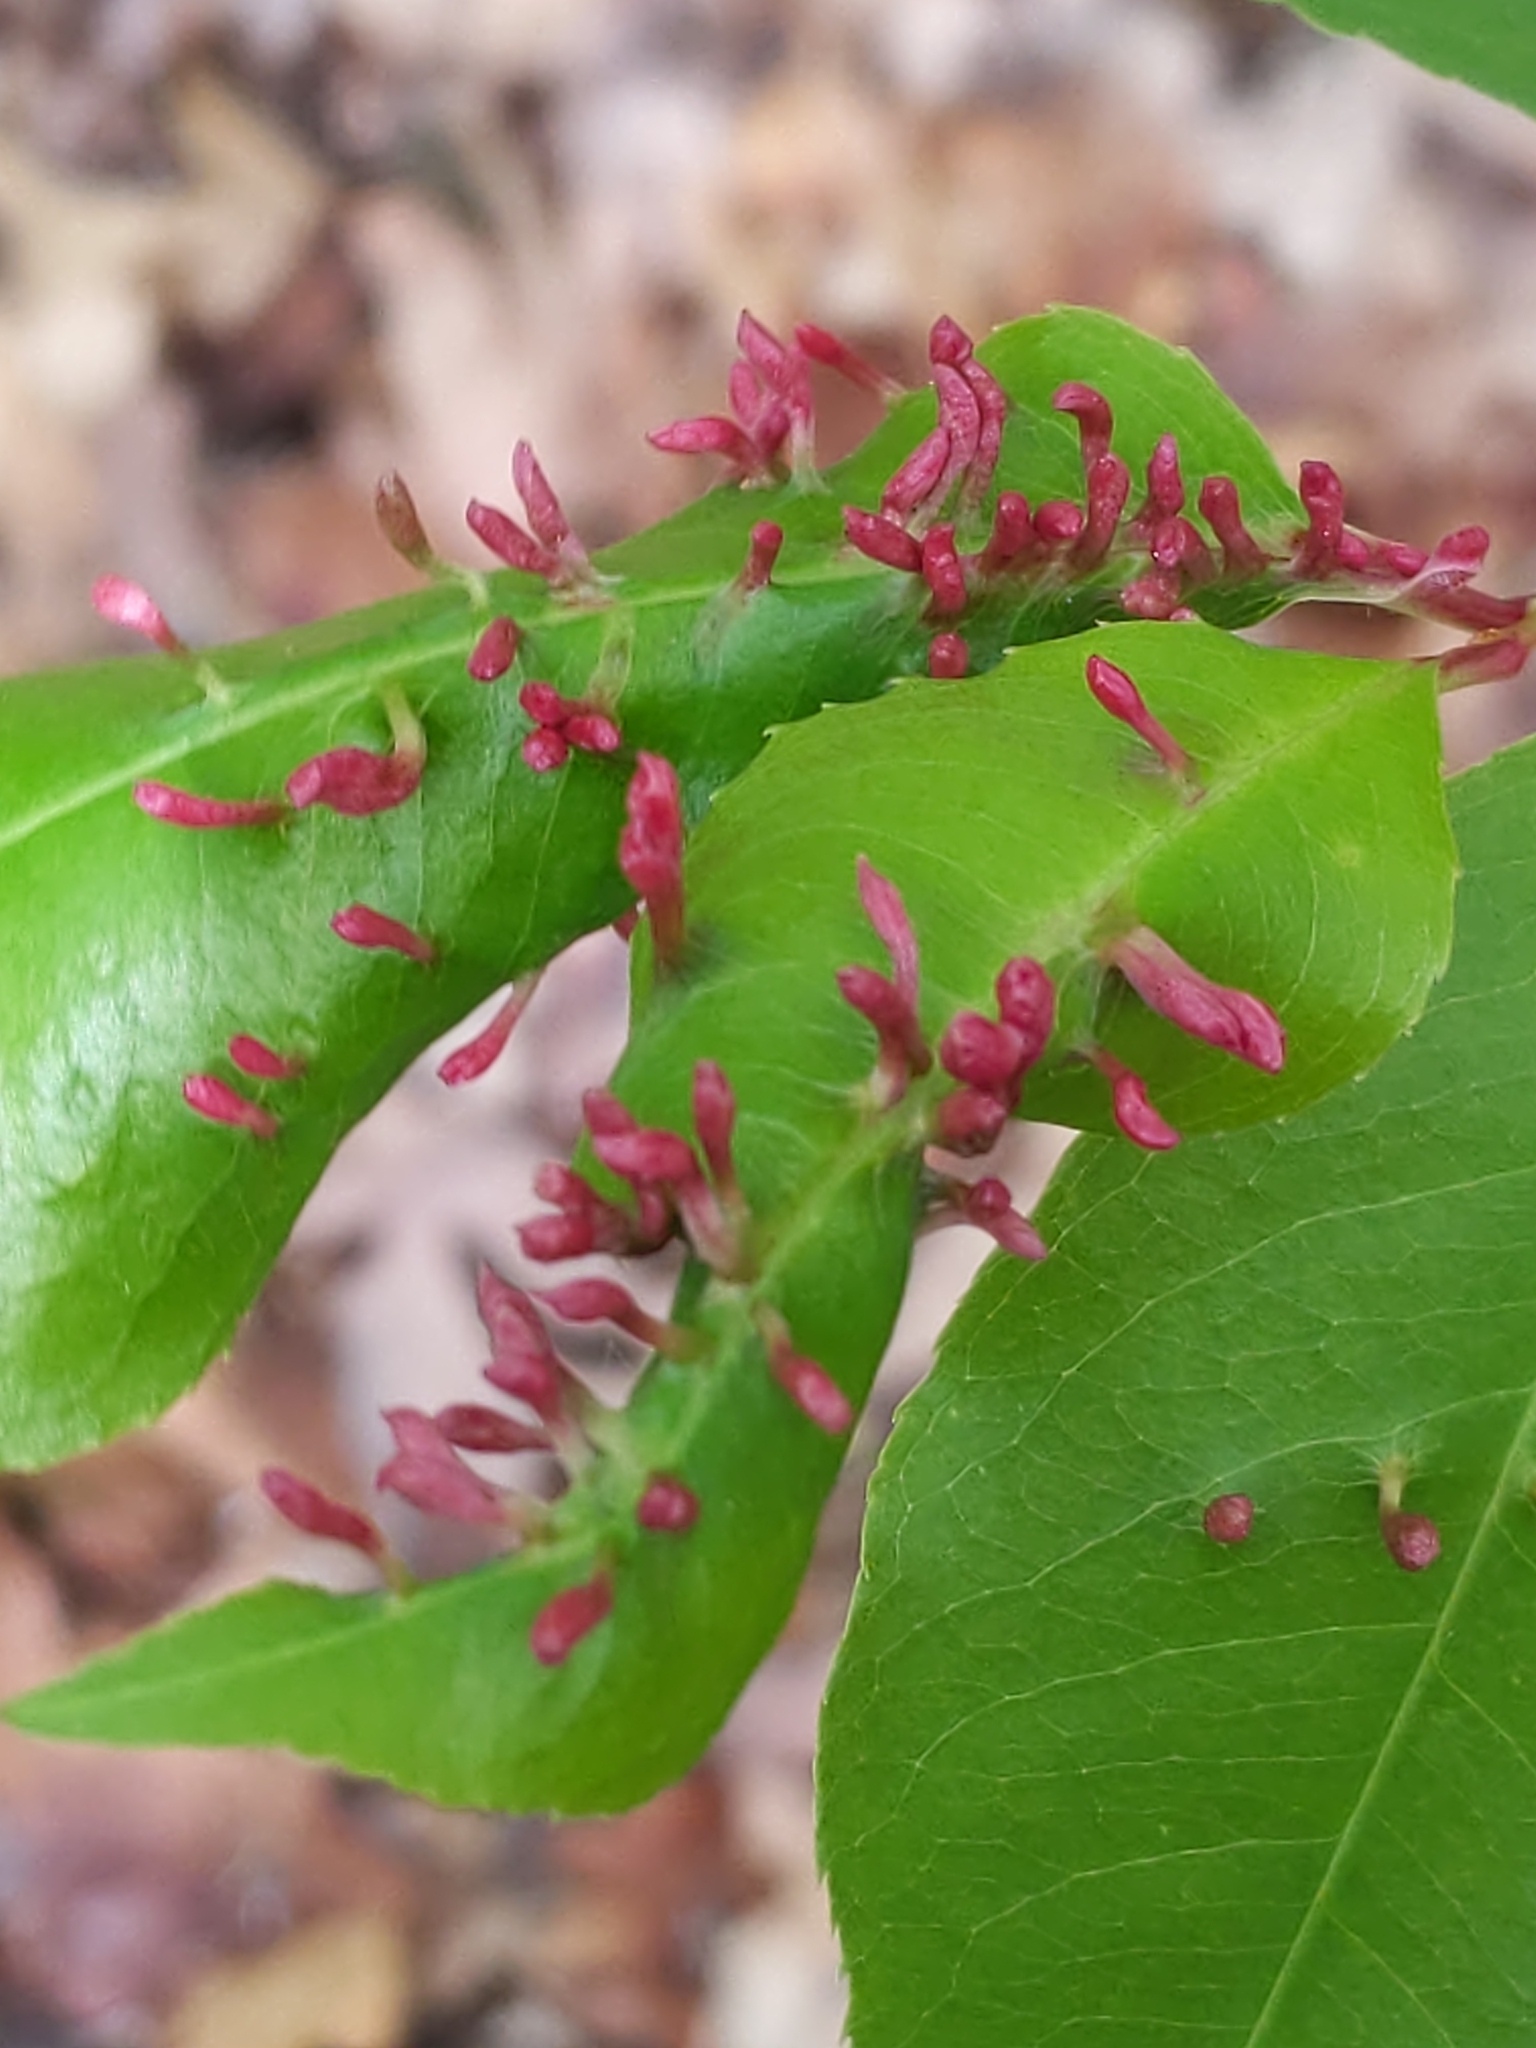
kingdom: Animalia
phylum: Arthropoda
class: Arachnida
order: Trombidiformes
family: Eriophyidae
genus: Eriophyes
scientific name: Eriophyes
